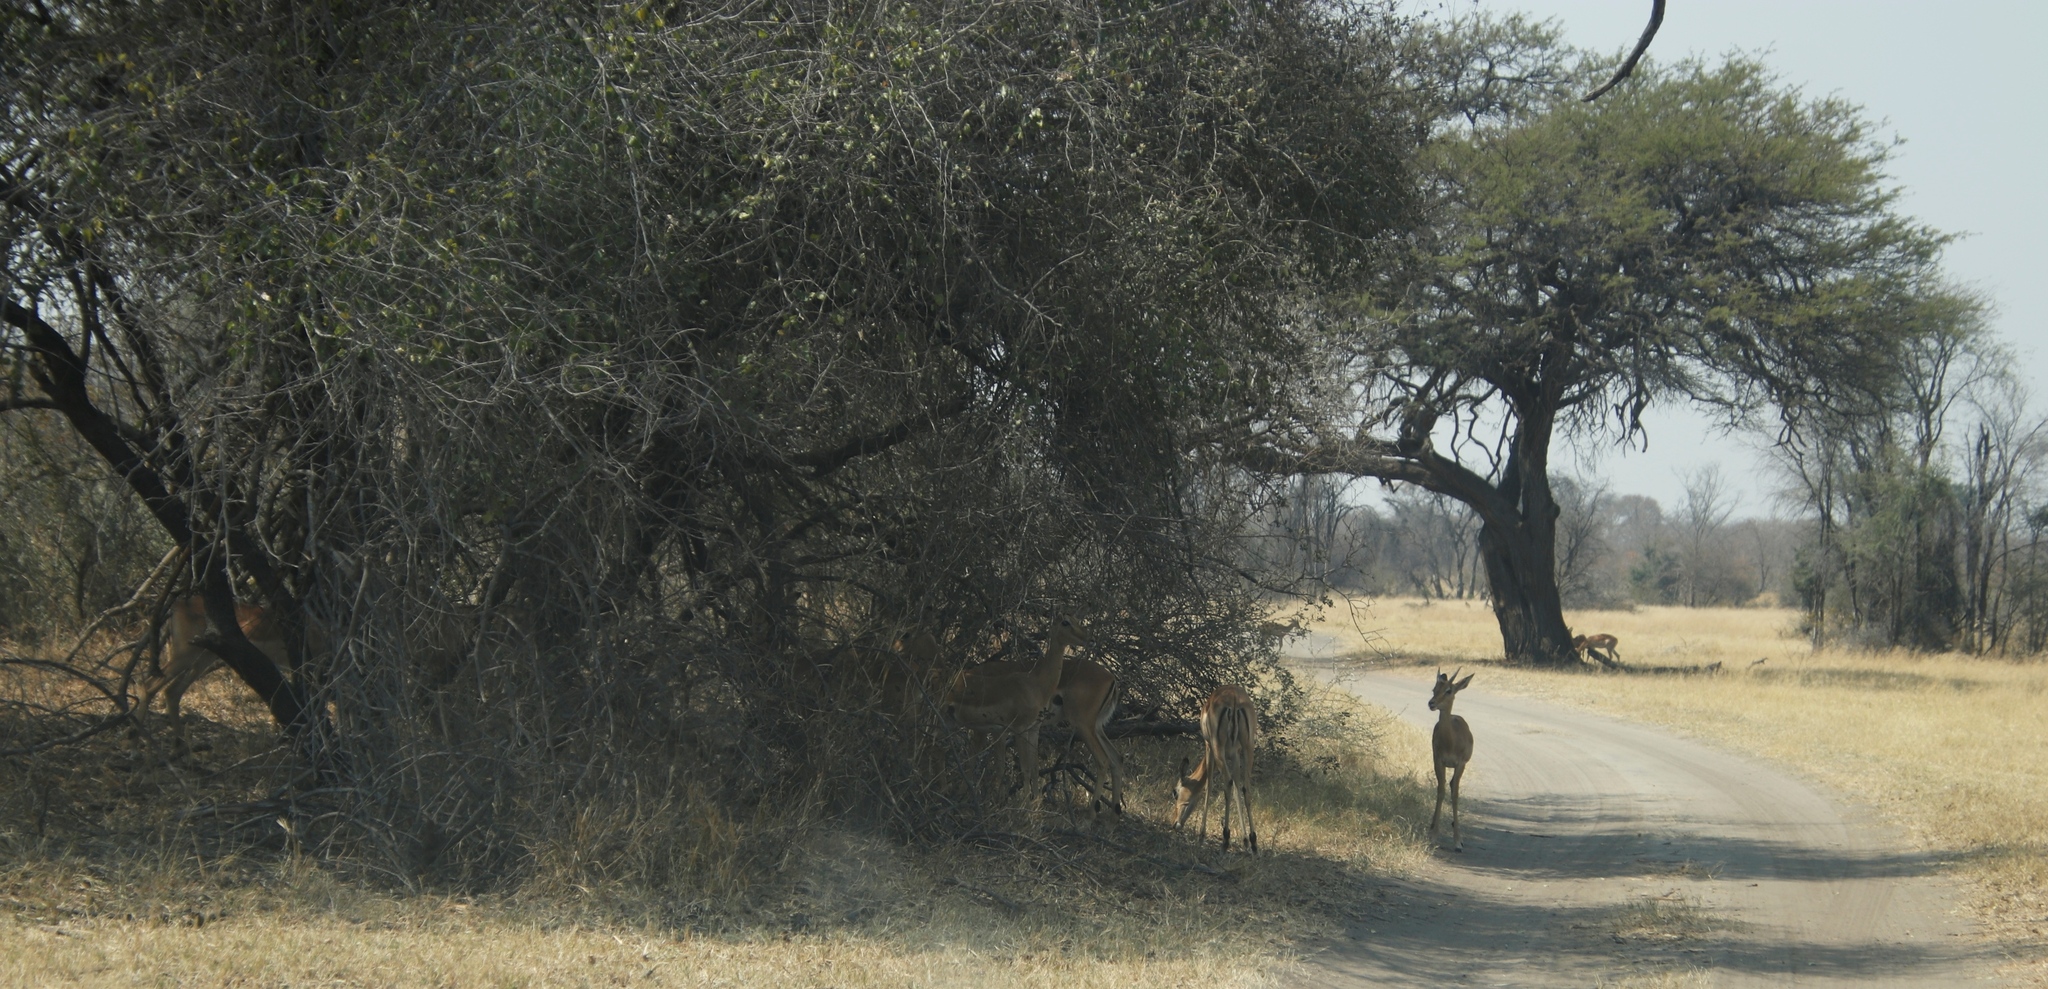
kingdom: Animalia
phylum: Chordata
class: Mammalia
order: Artiodactyla
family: Bovidae
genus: Aepyceros
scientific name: Aepyceros melampus
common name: Impala
